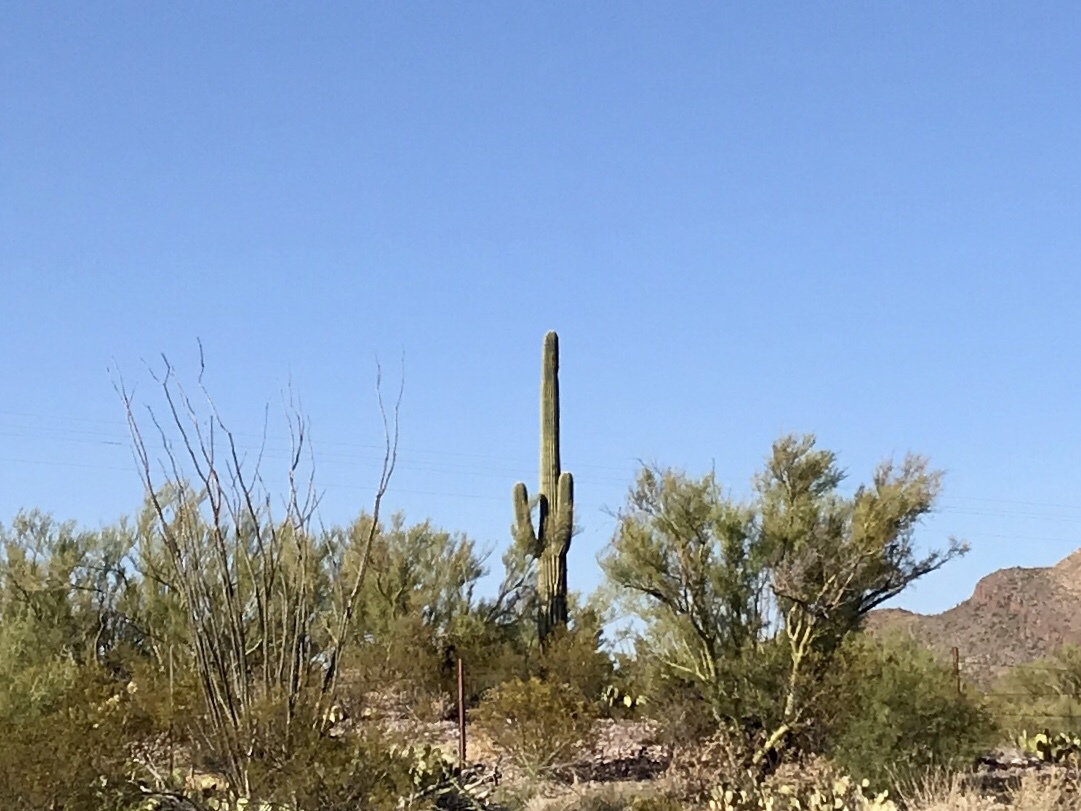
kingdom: Plantae
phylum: Tracheophyta
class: Magnoliopsida
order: Caryophyllales
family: Cactaceae
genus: Carnegiea
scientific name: Carnegiea gigantea
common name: Saguaro
